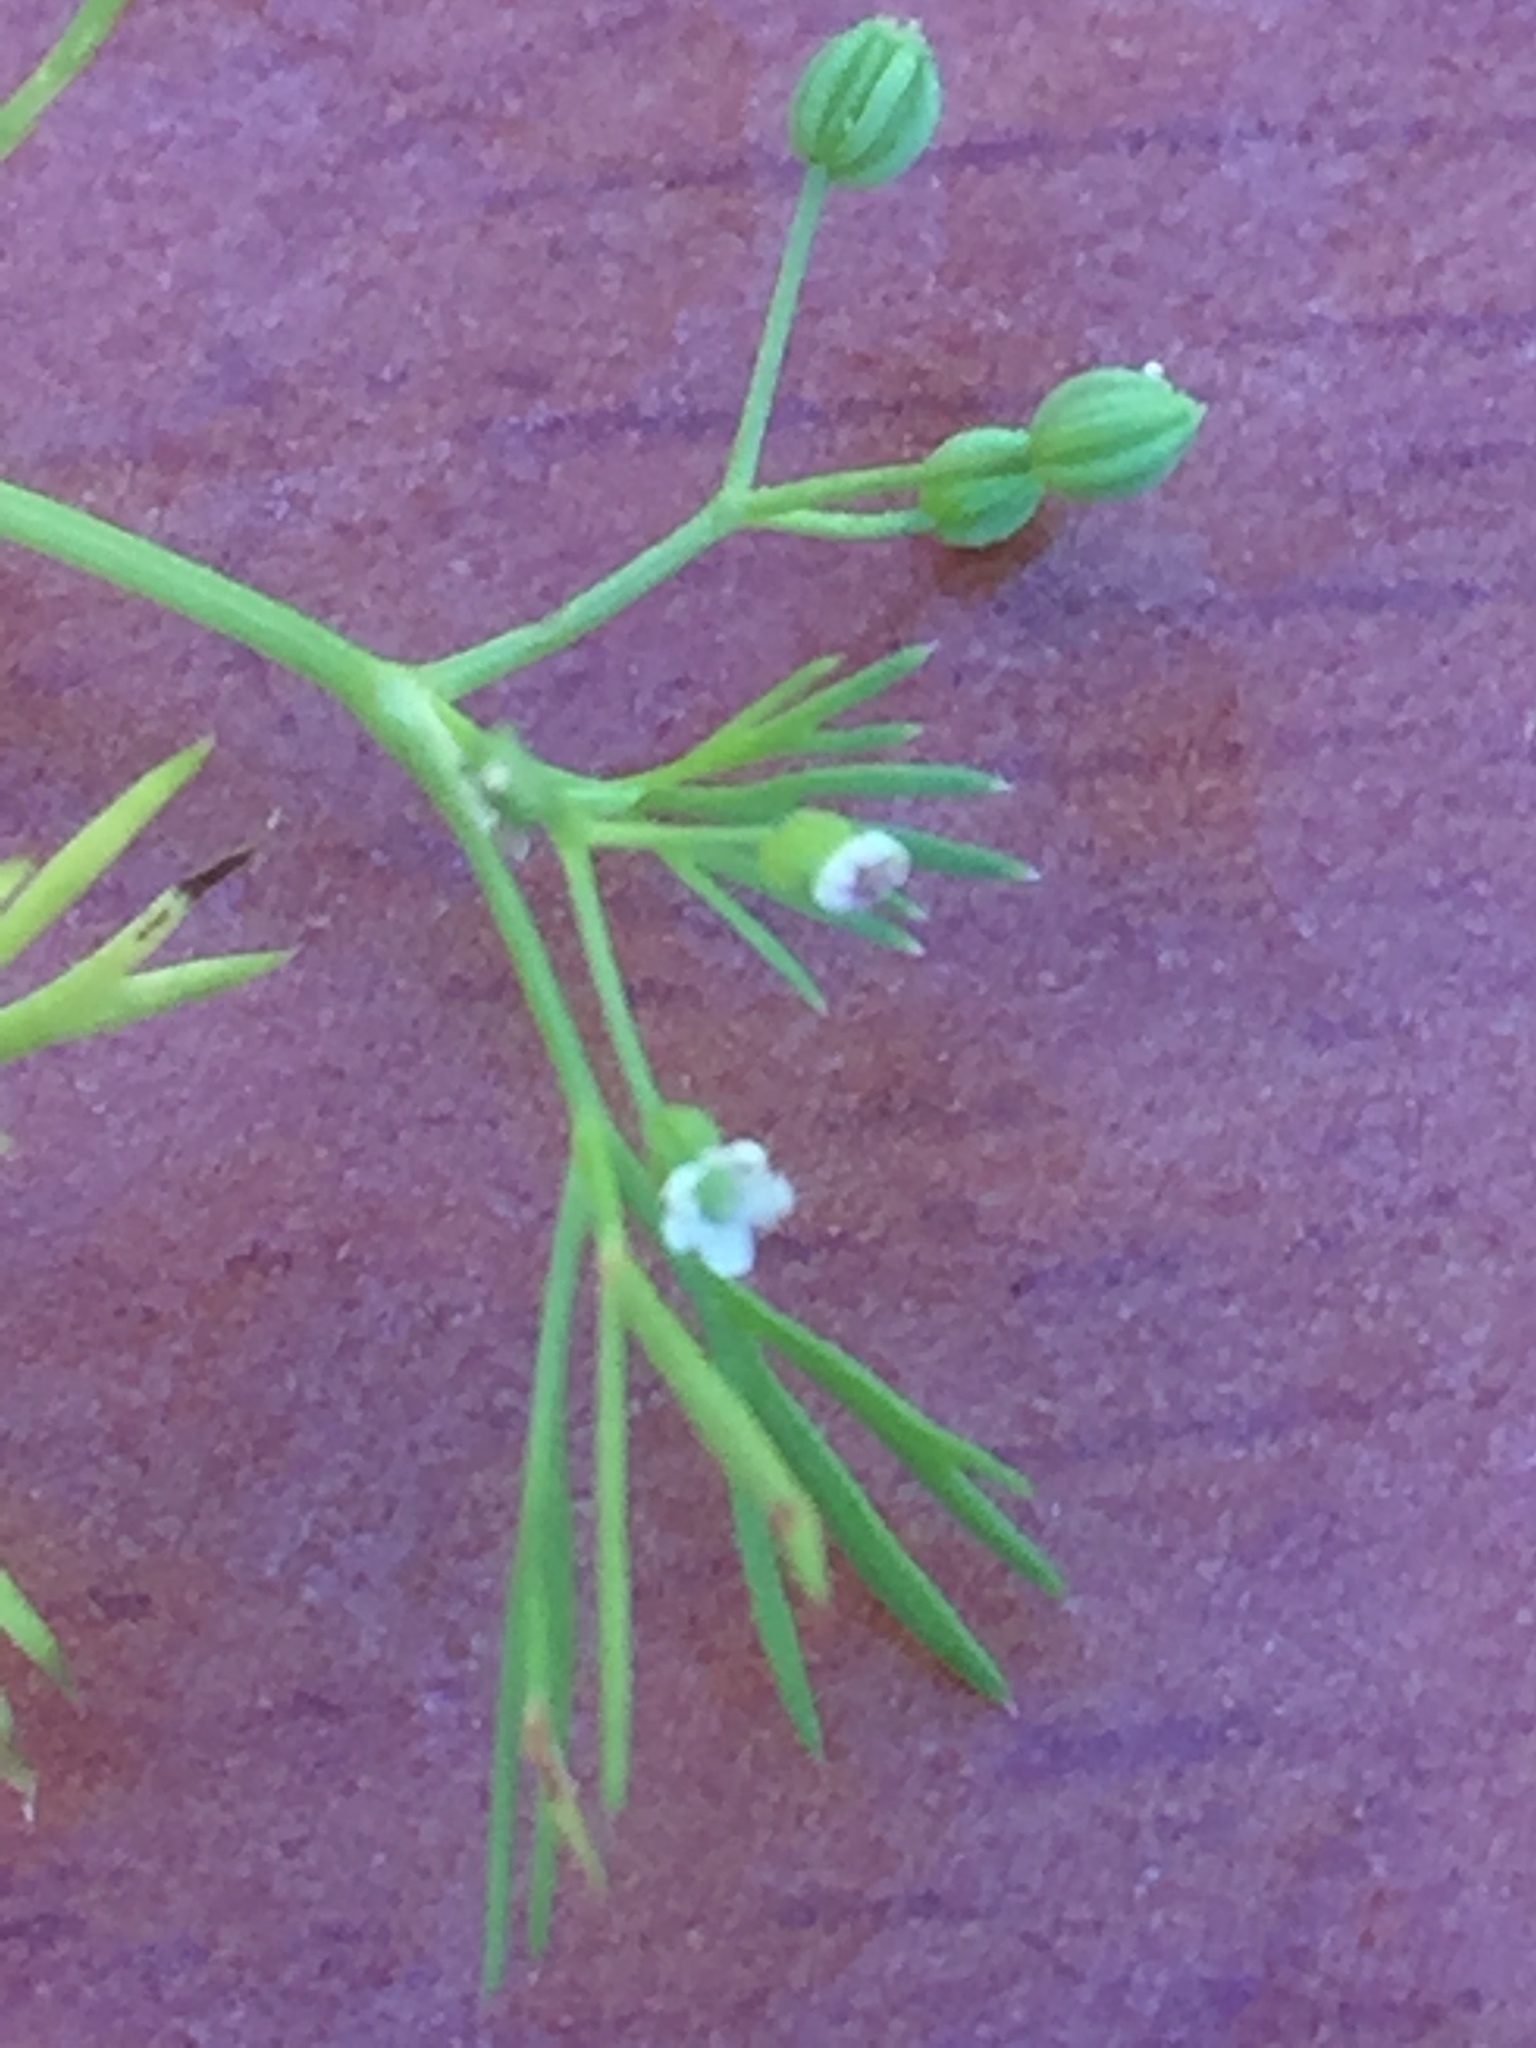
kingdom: Plantae
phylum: Tracheophyta
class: Magnoliopsida
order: Apiales
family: Apiaceae
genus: Cyclospermum
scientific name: Cyclospermum leptophyllum
